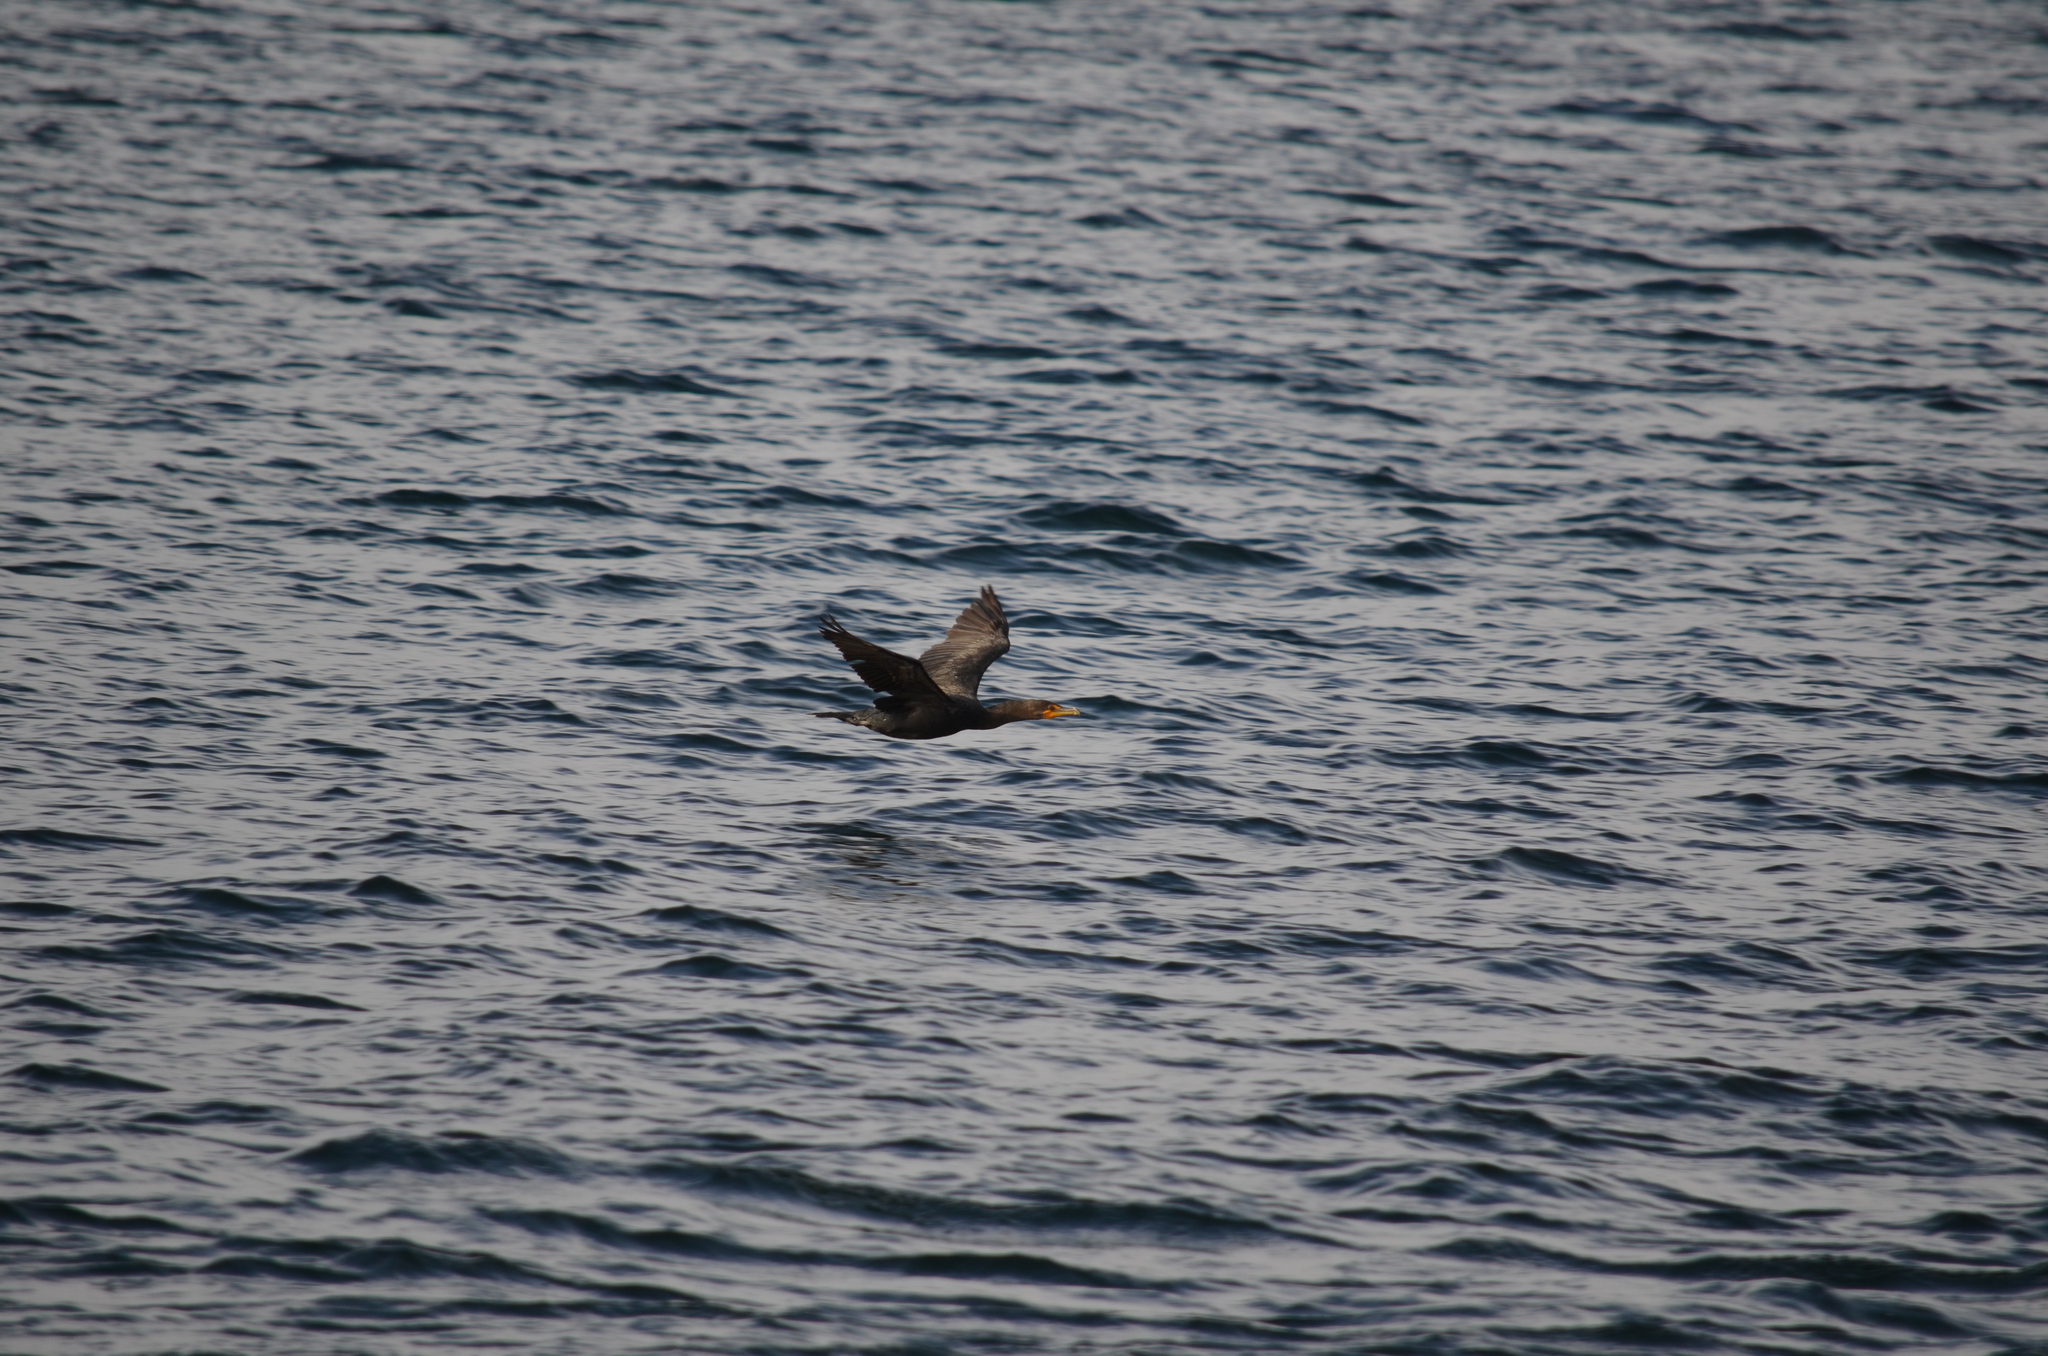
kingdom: Animalia
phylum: Chordata
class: Aves
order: Suliformes
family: Phalacrocoracidae
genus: Phalacrocorax
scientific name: Phalacrocorax auritus
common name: Double-crested cormorant
